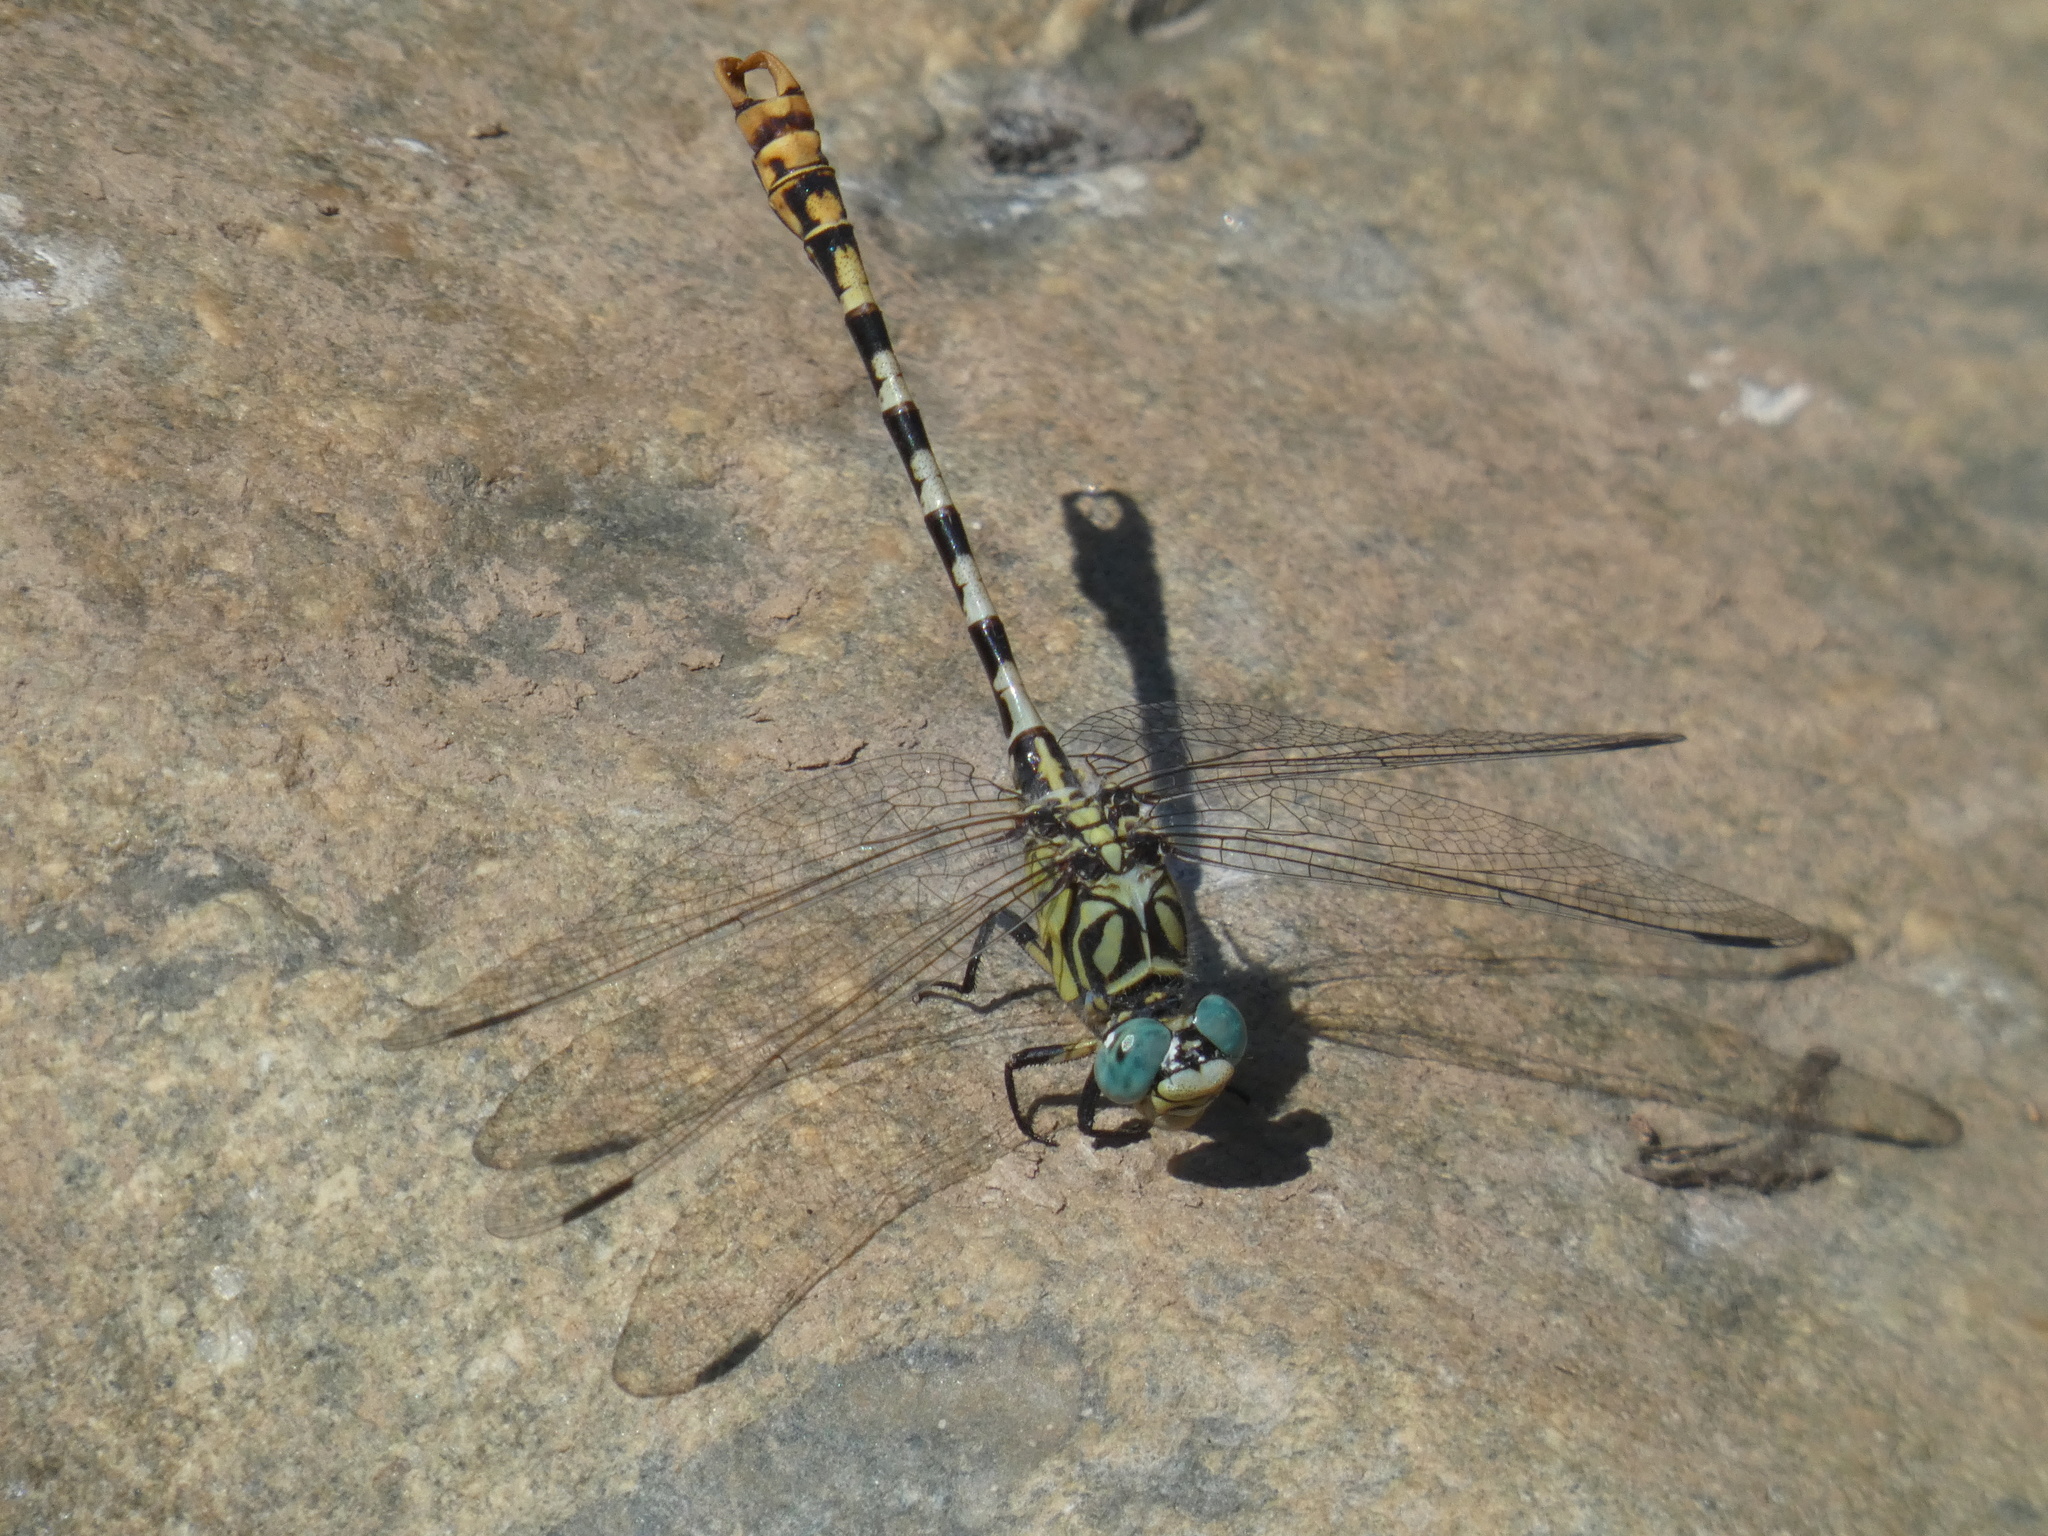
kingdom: Animalia
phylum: Arthropoda
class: Insecta
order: Odonata
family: Gomphidae
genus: Onychogomphus
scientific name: Onychogomphus forcipatus
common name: Small pincertail
